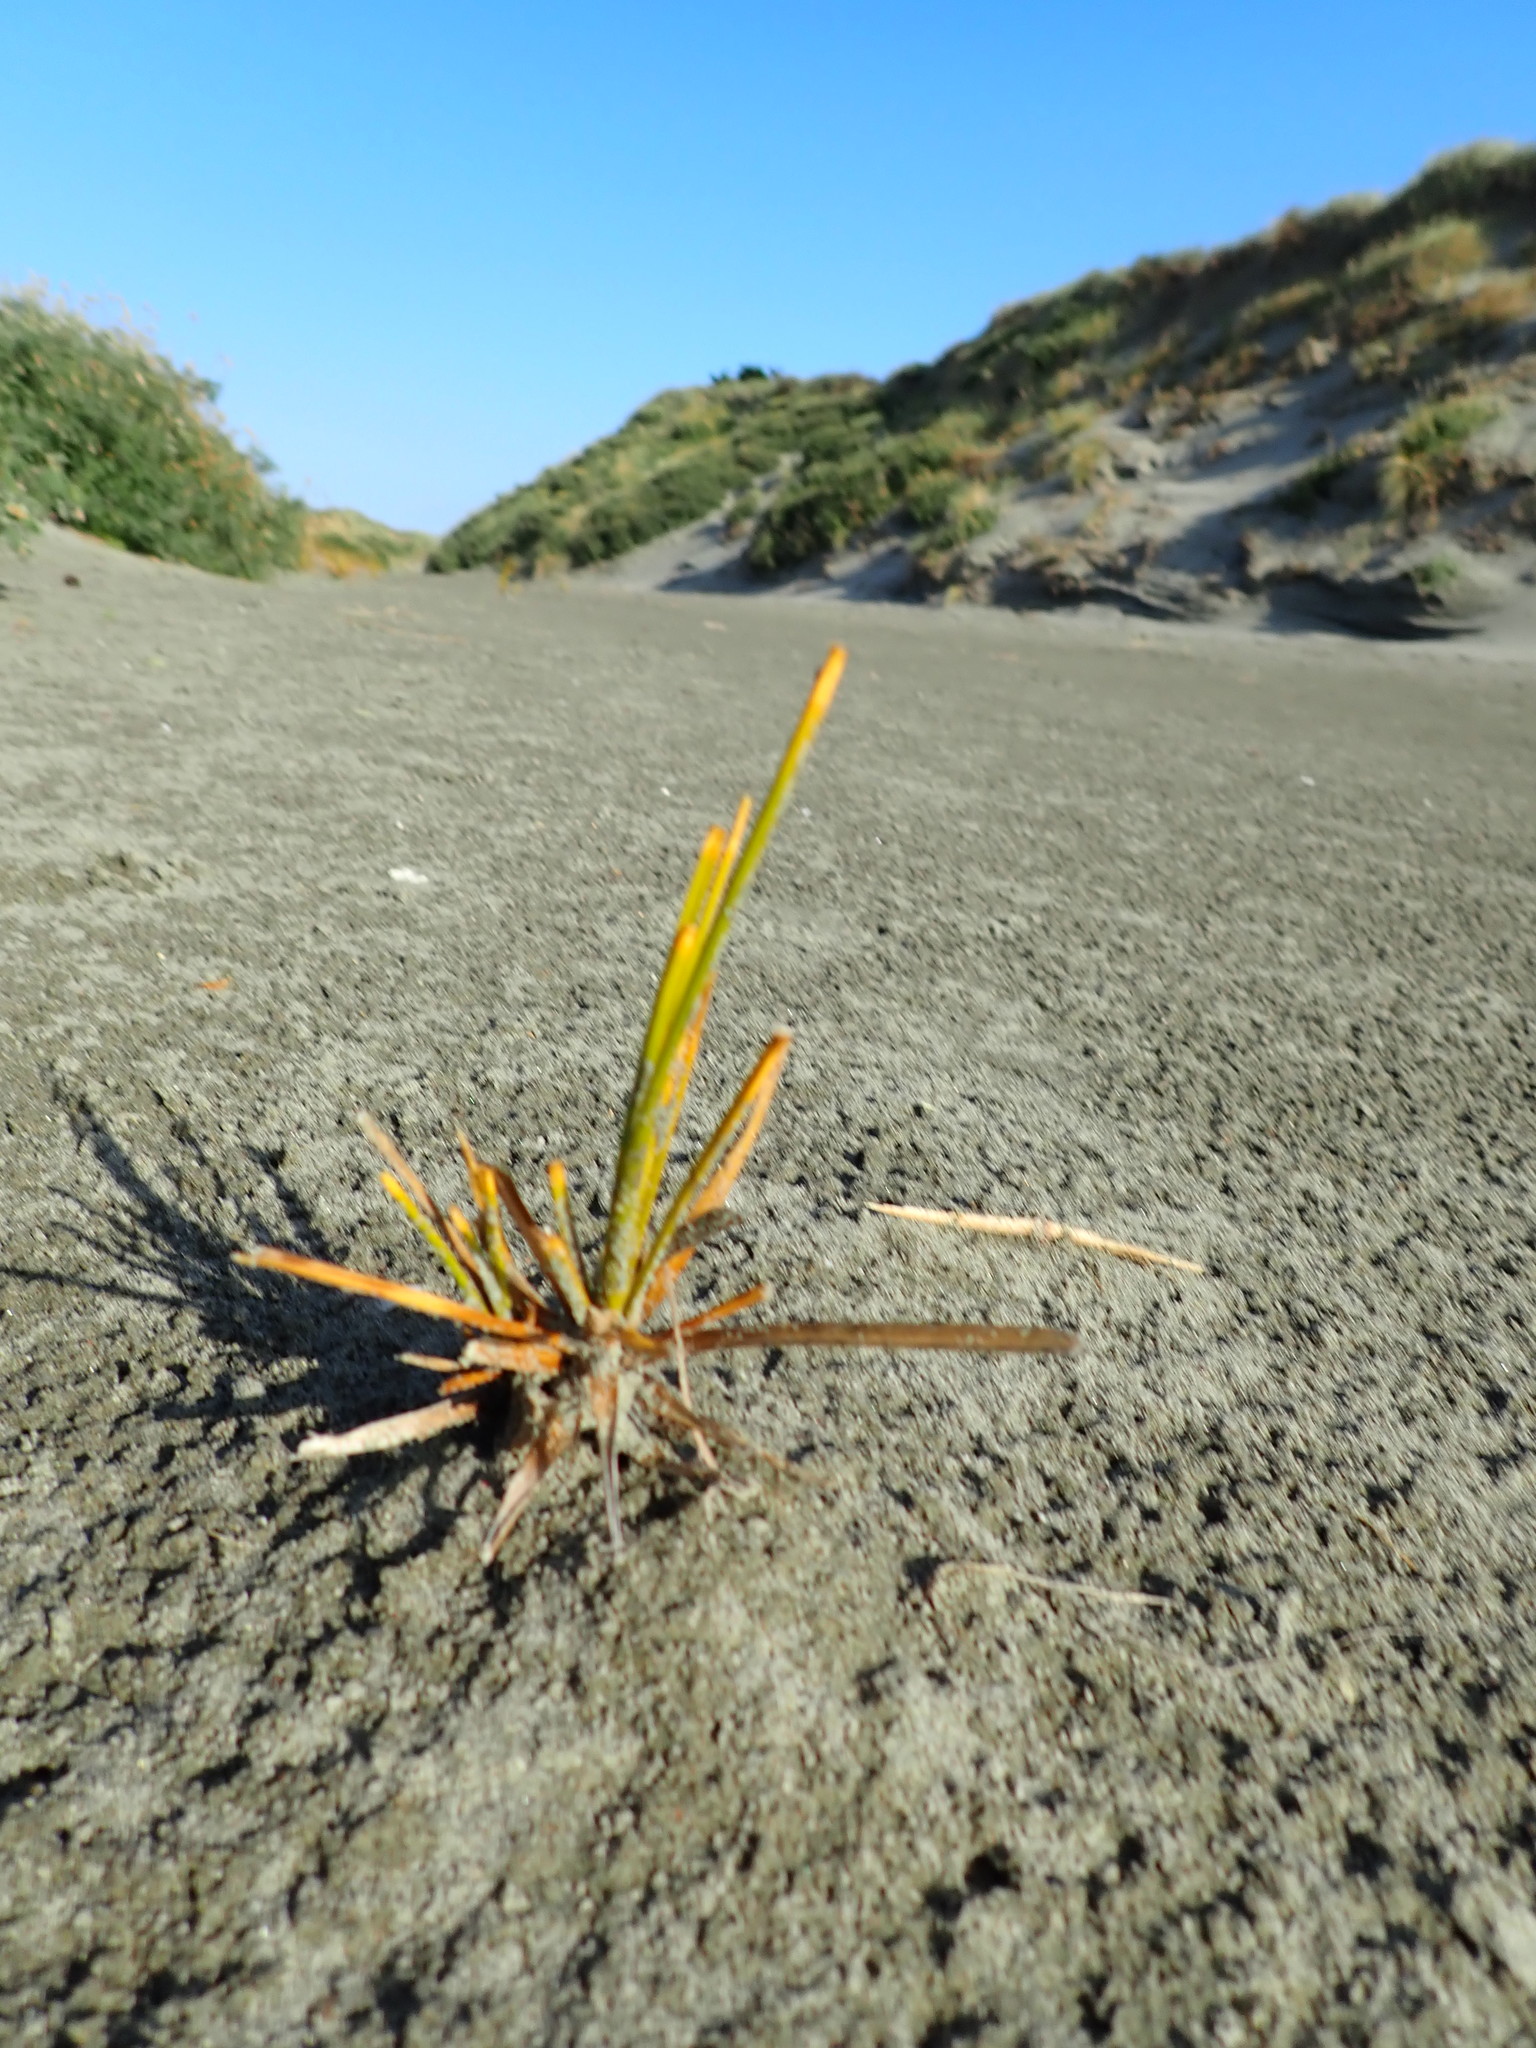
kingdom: Plantae
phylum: Tracheophyta
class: Liliopsida
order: Poales
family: Cyperaceae
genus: Ficinia
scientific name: Ficinia spiralis
